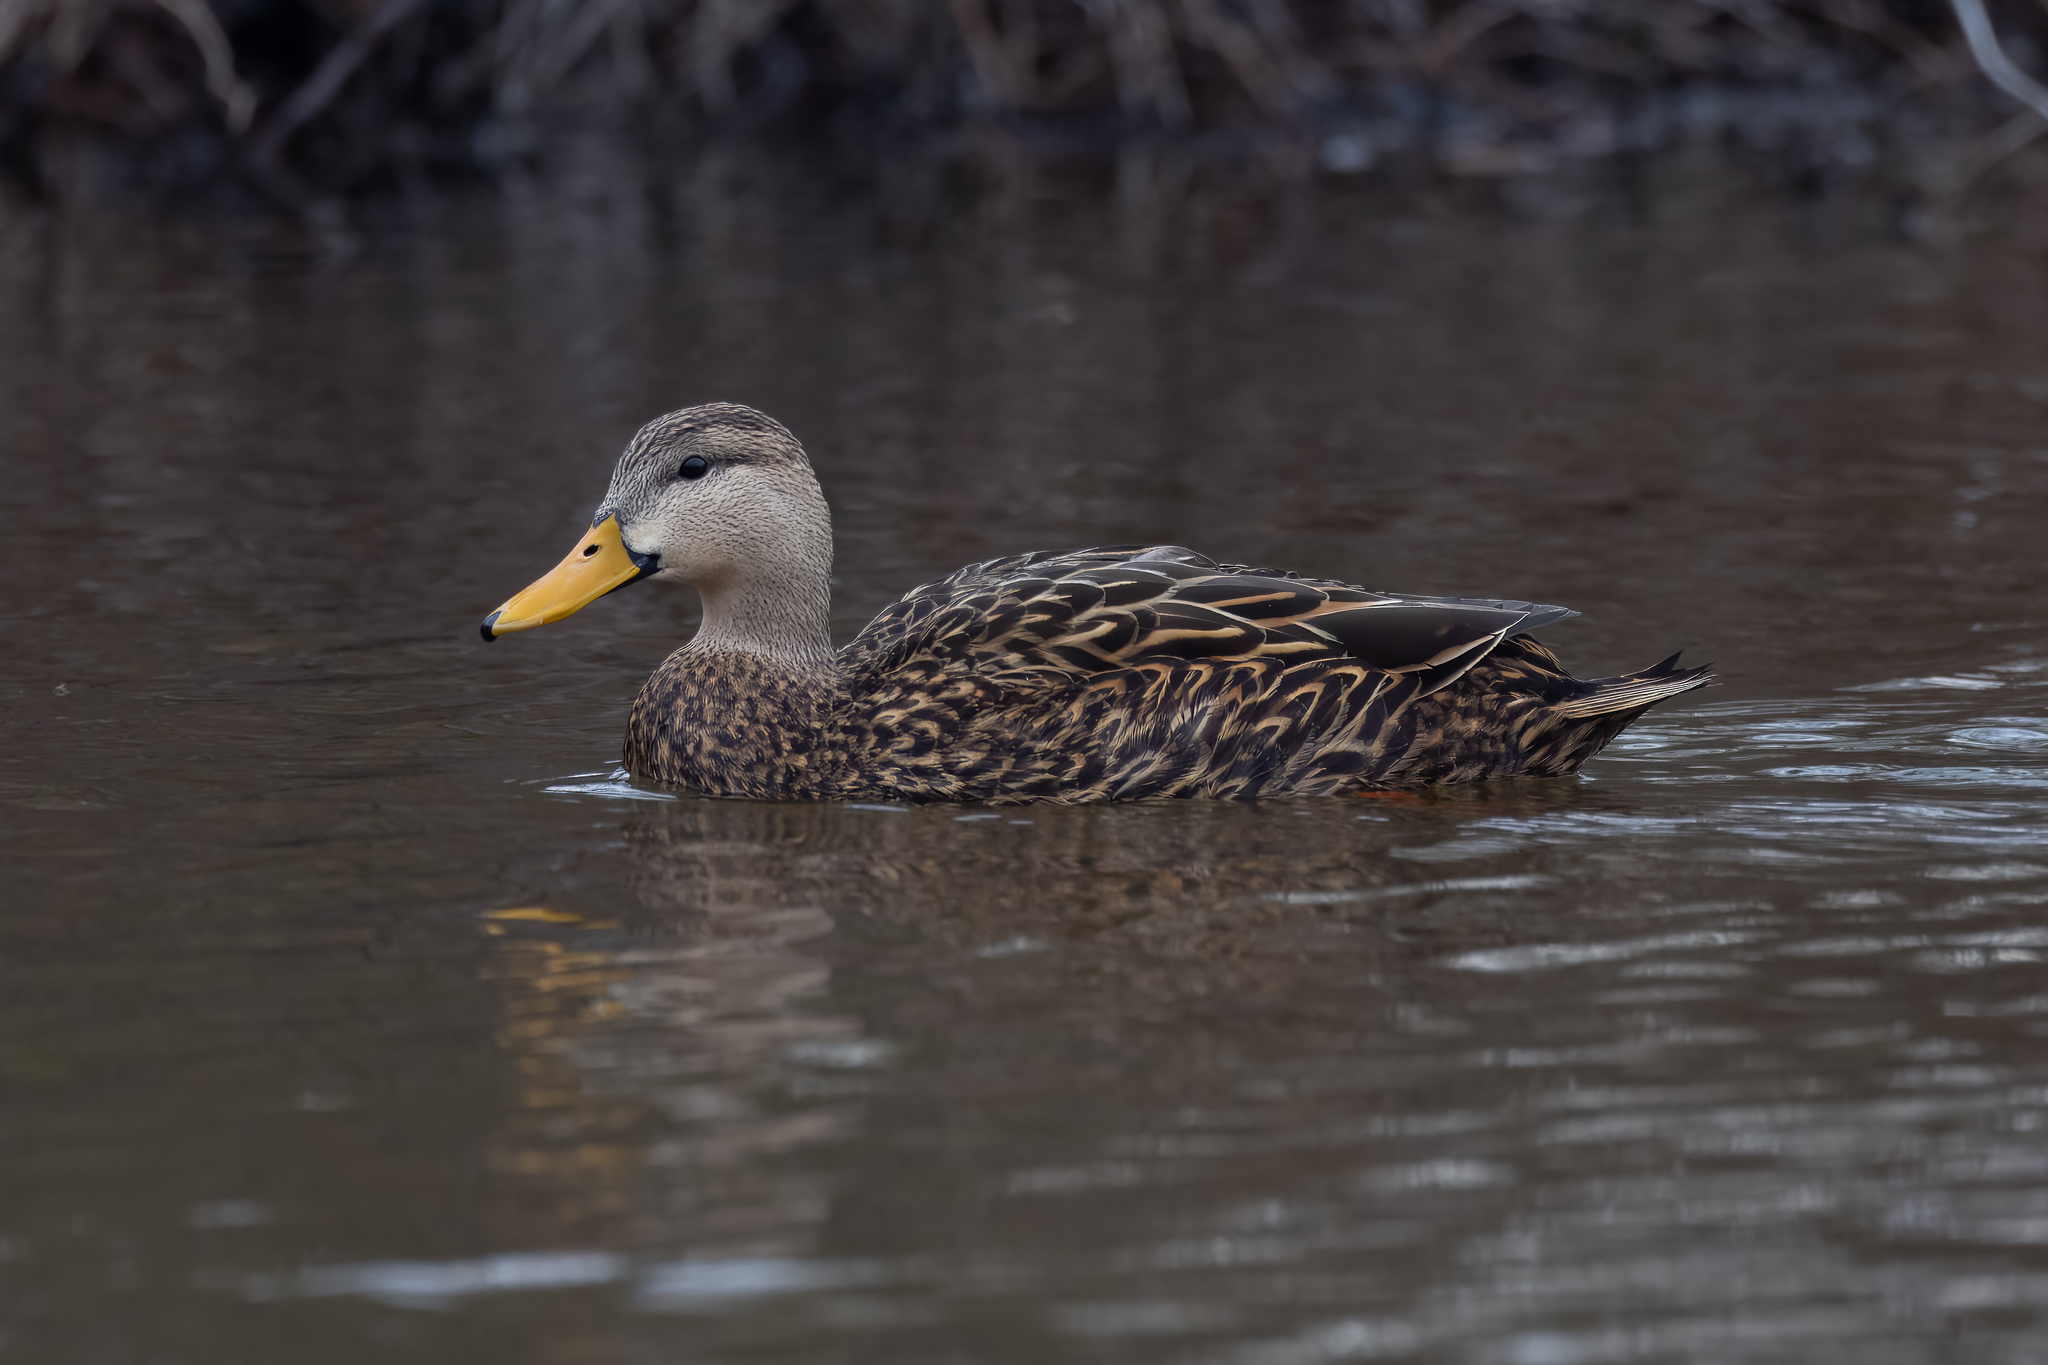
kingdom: Animalia
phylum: Chordata
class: Aves
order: Anseriformes
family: Anatidae
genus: Anas
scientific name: Anas fulvigula
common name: Mottled duck
